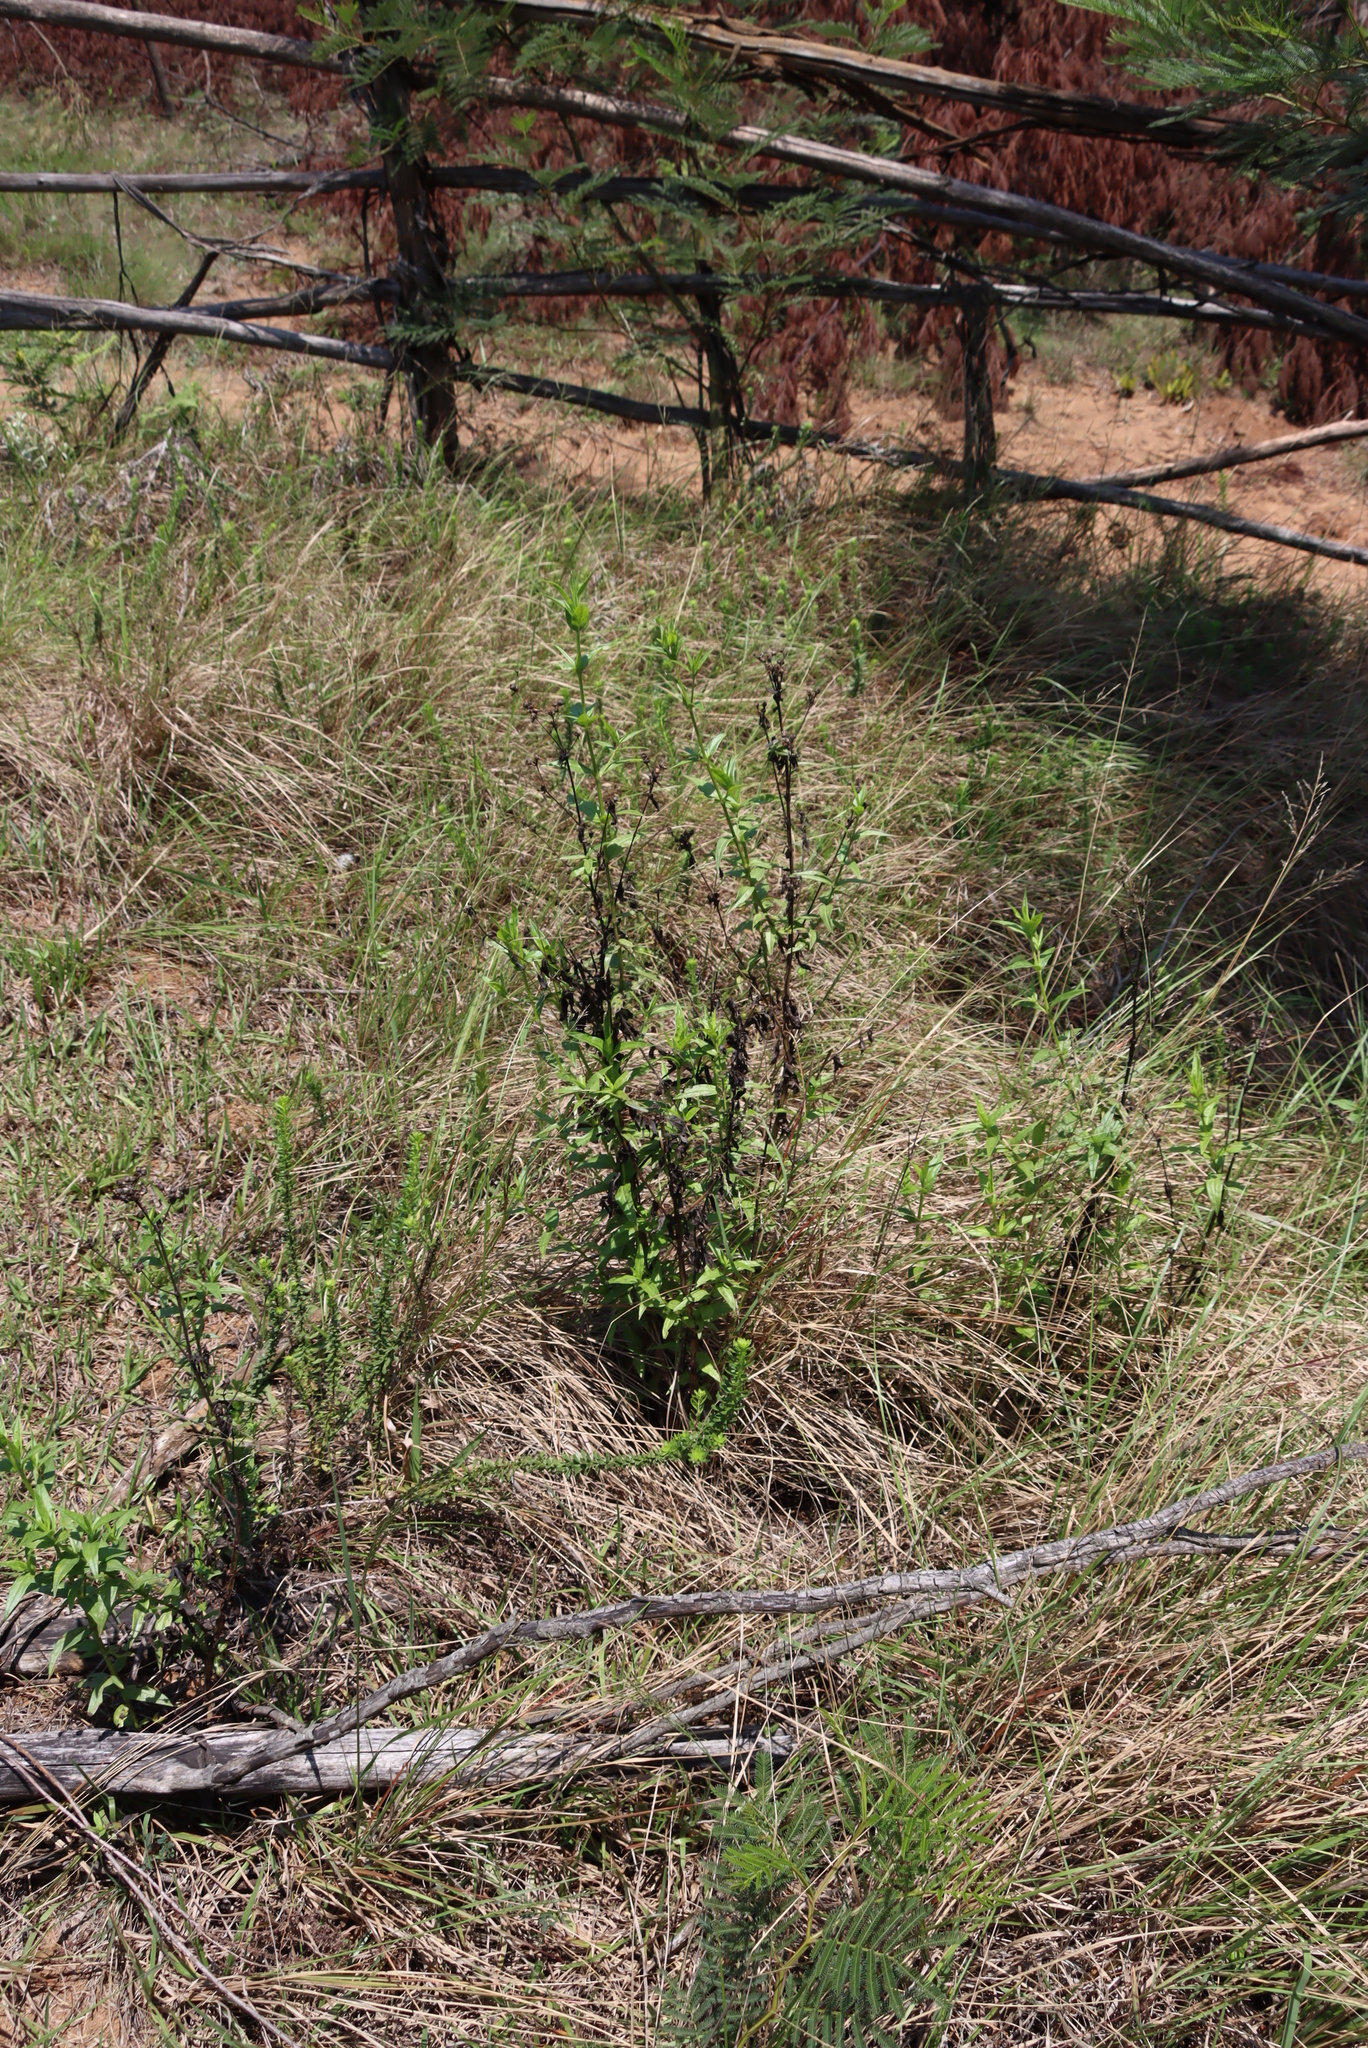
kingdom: Plantae
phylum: Tracheophyta
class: Magnoliopsida
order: Gentianales
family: Rubiaceae
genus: Conostomium
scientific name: Conostomium natalense
